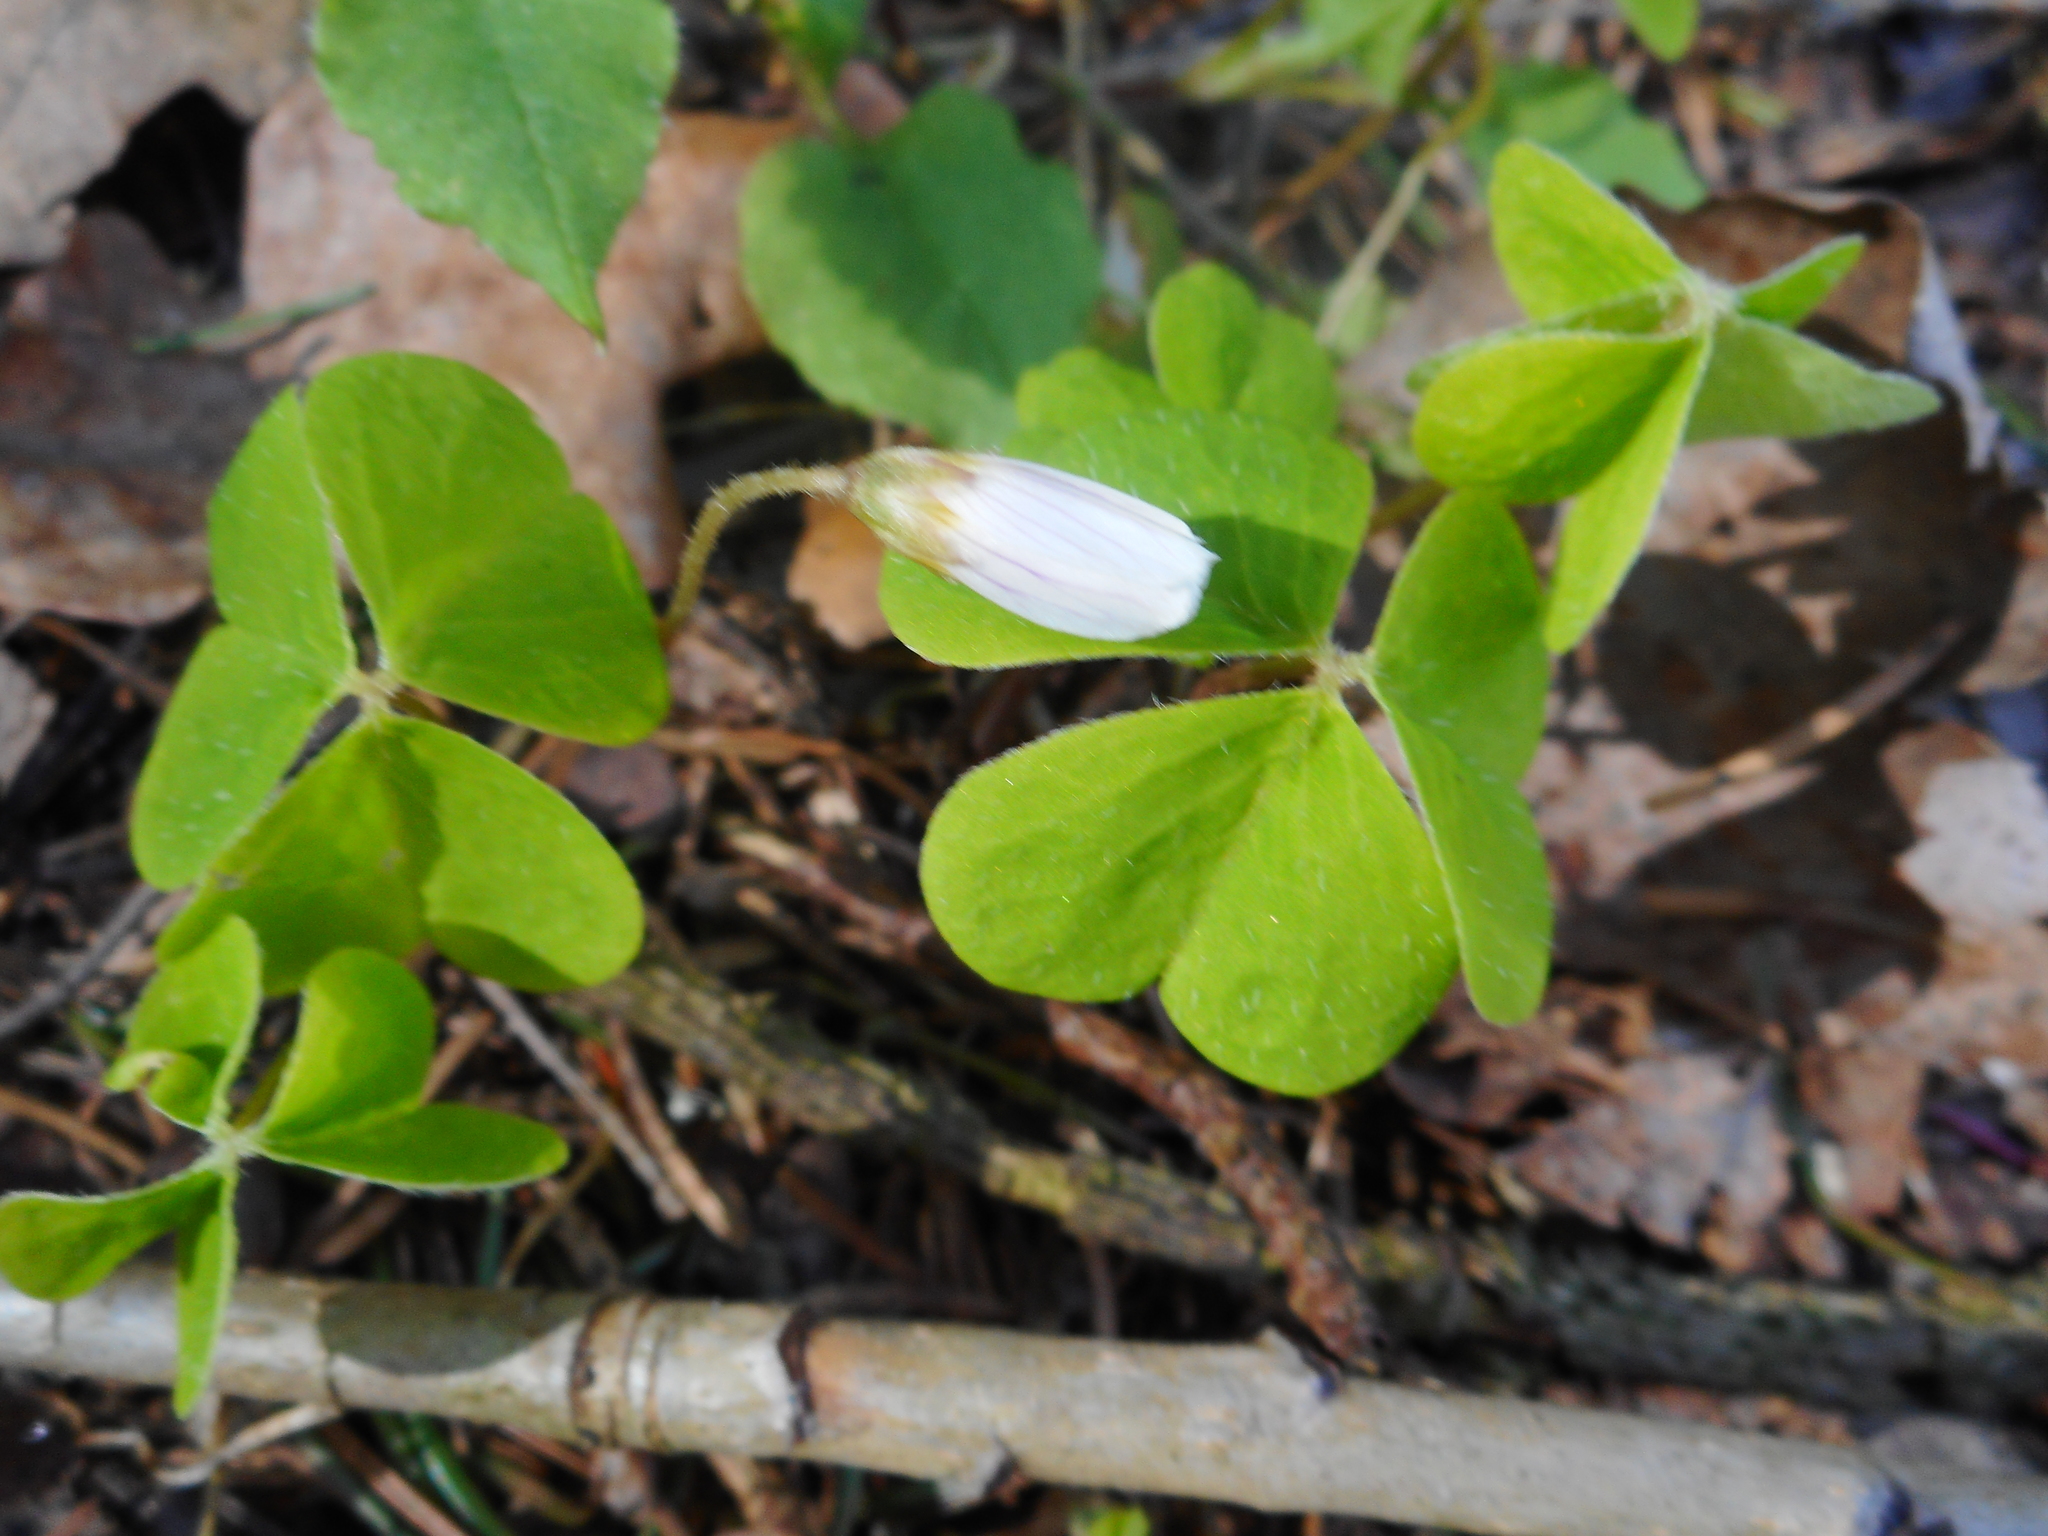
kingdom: Plantae
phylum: Tracheophyta
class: Magnoliopsida
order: Oxalidales
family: Oxalidaceae
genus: Oxalis
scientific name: Oxalis acetosella
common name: Wood-sorrel
